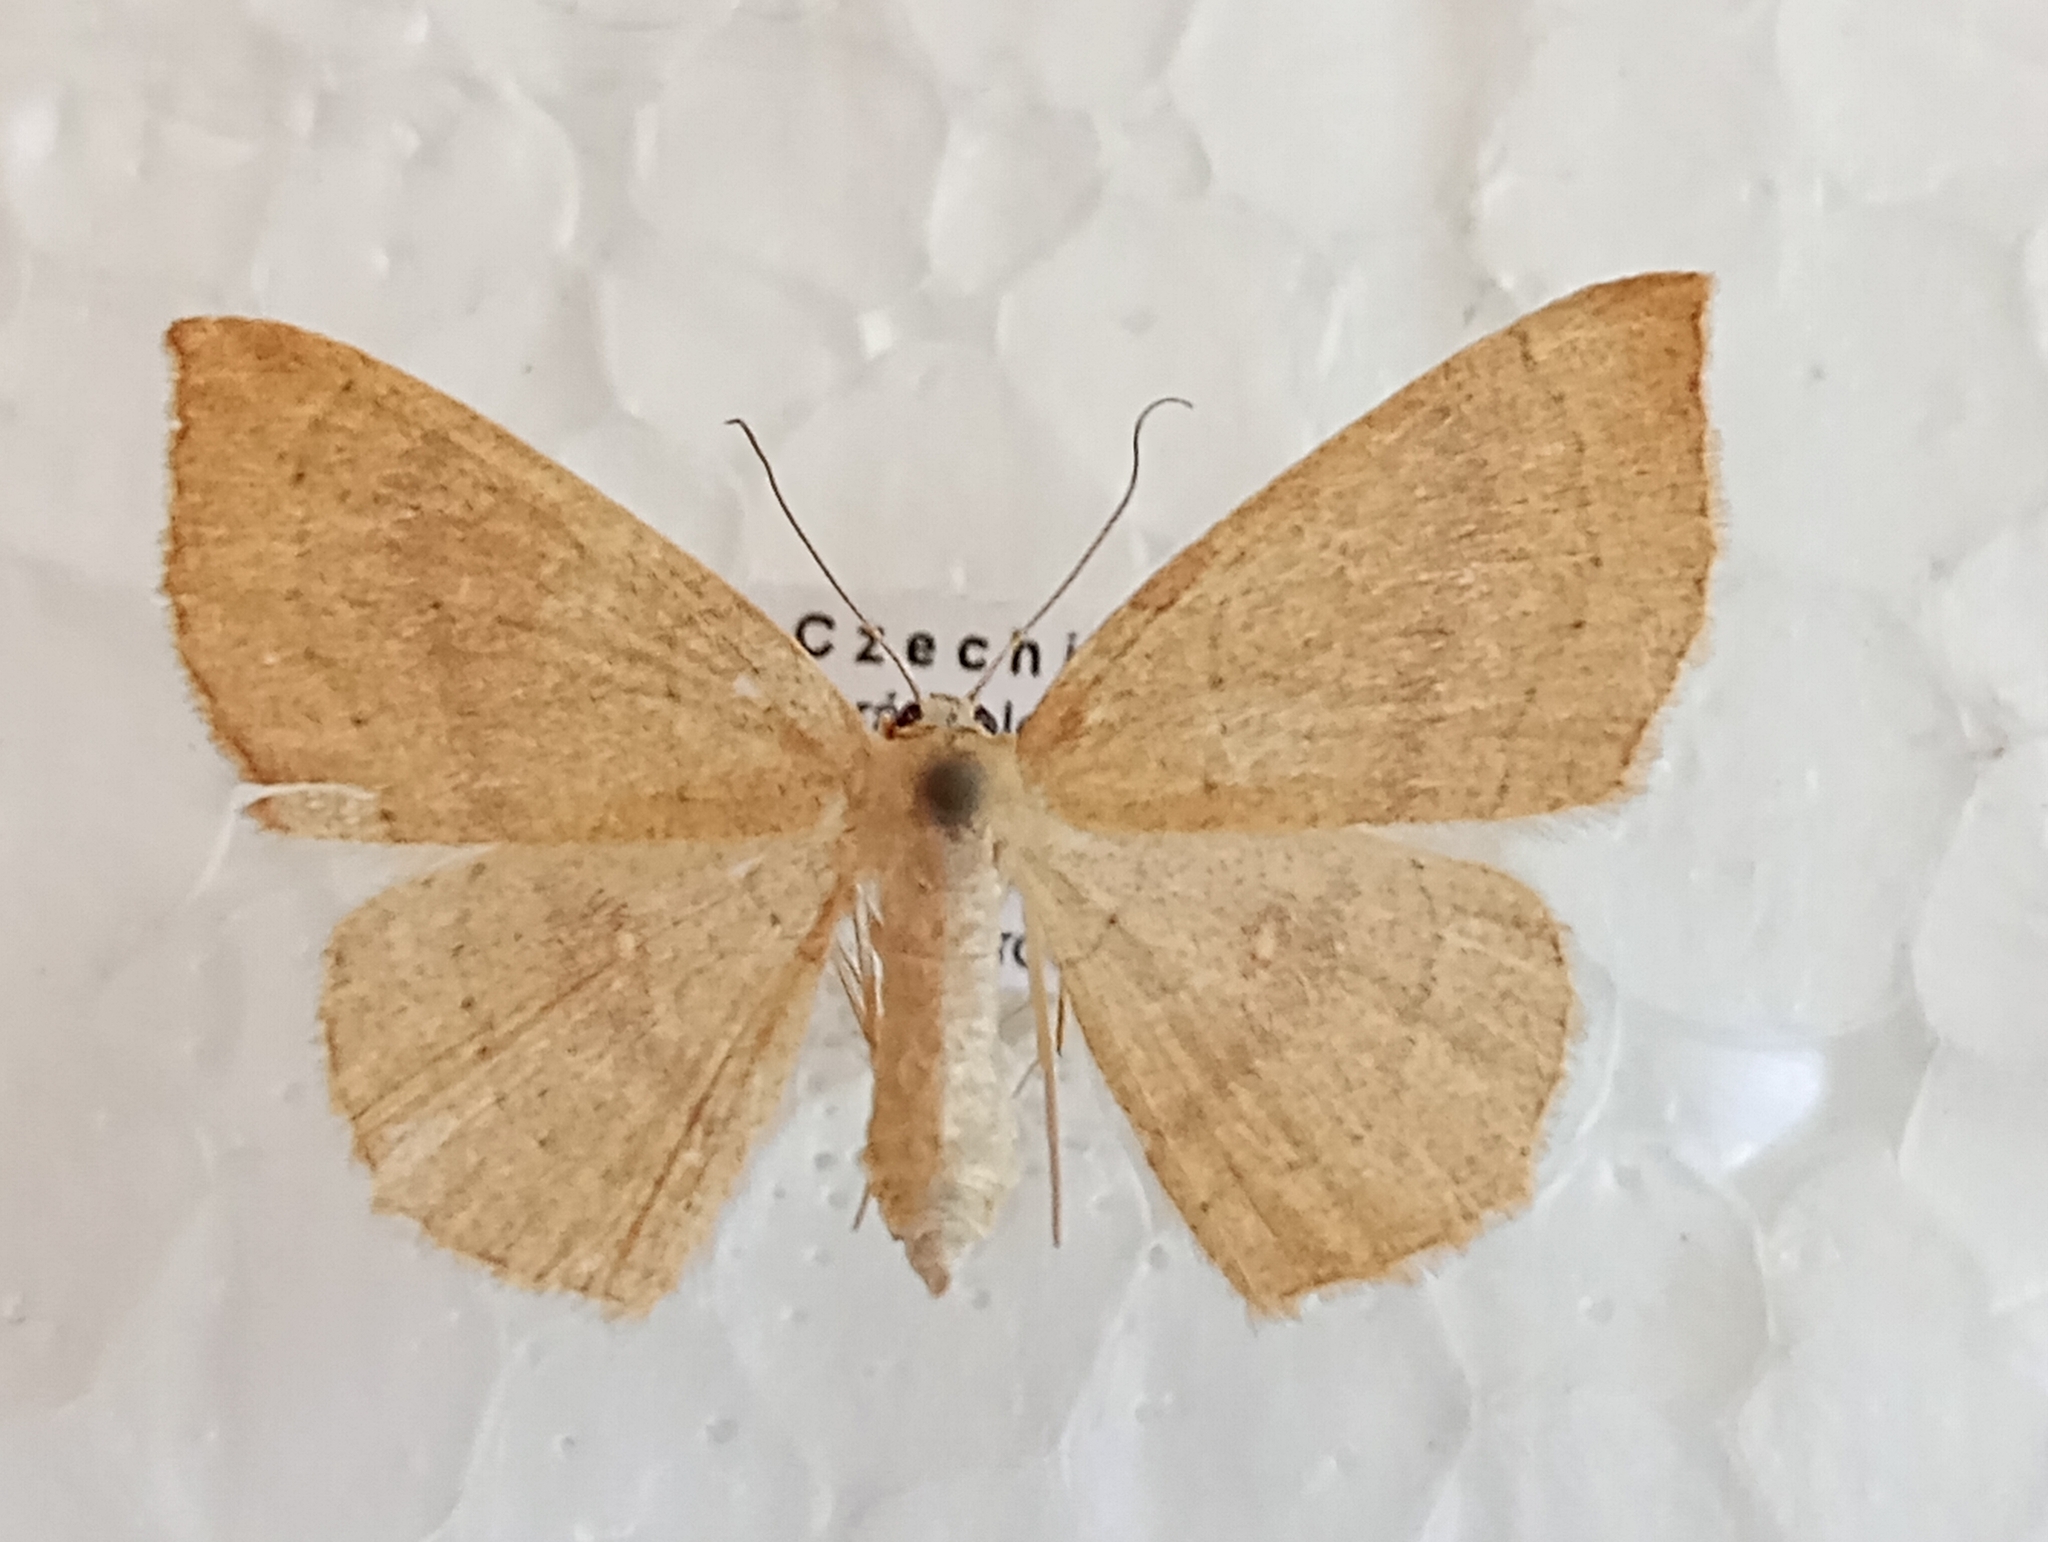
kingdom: Animalia
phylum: Arthropoda
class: Insecta
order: Lepidoptera
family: Geometridae
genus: Cyclophora
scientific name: Cyclophora linearia
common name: Clay triple-lines
